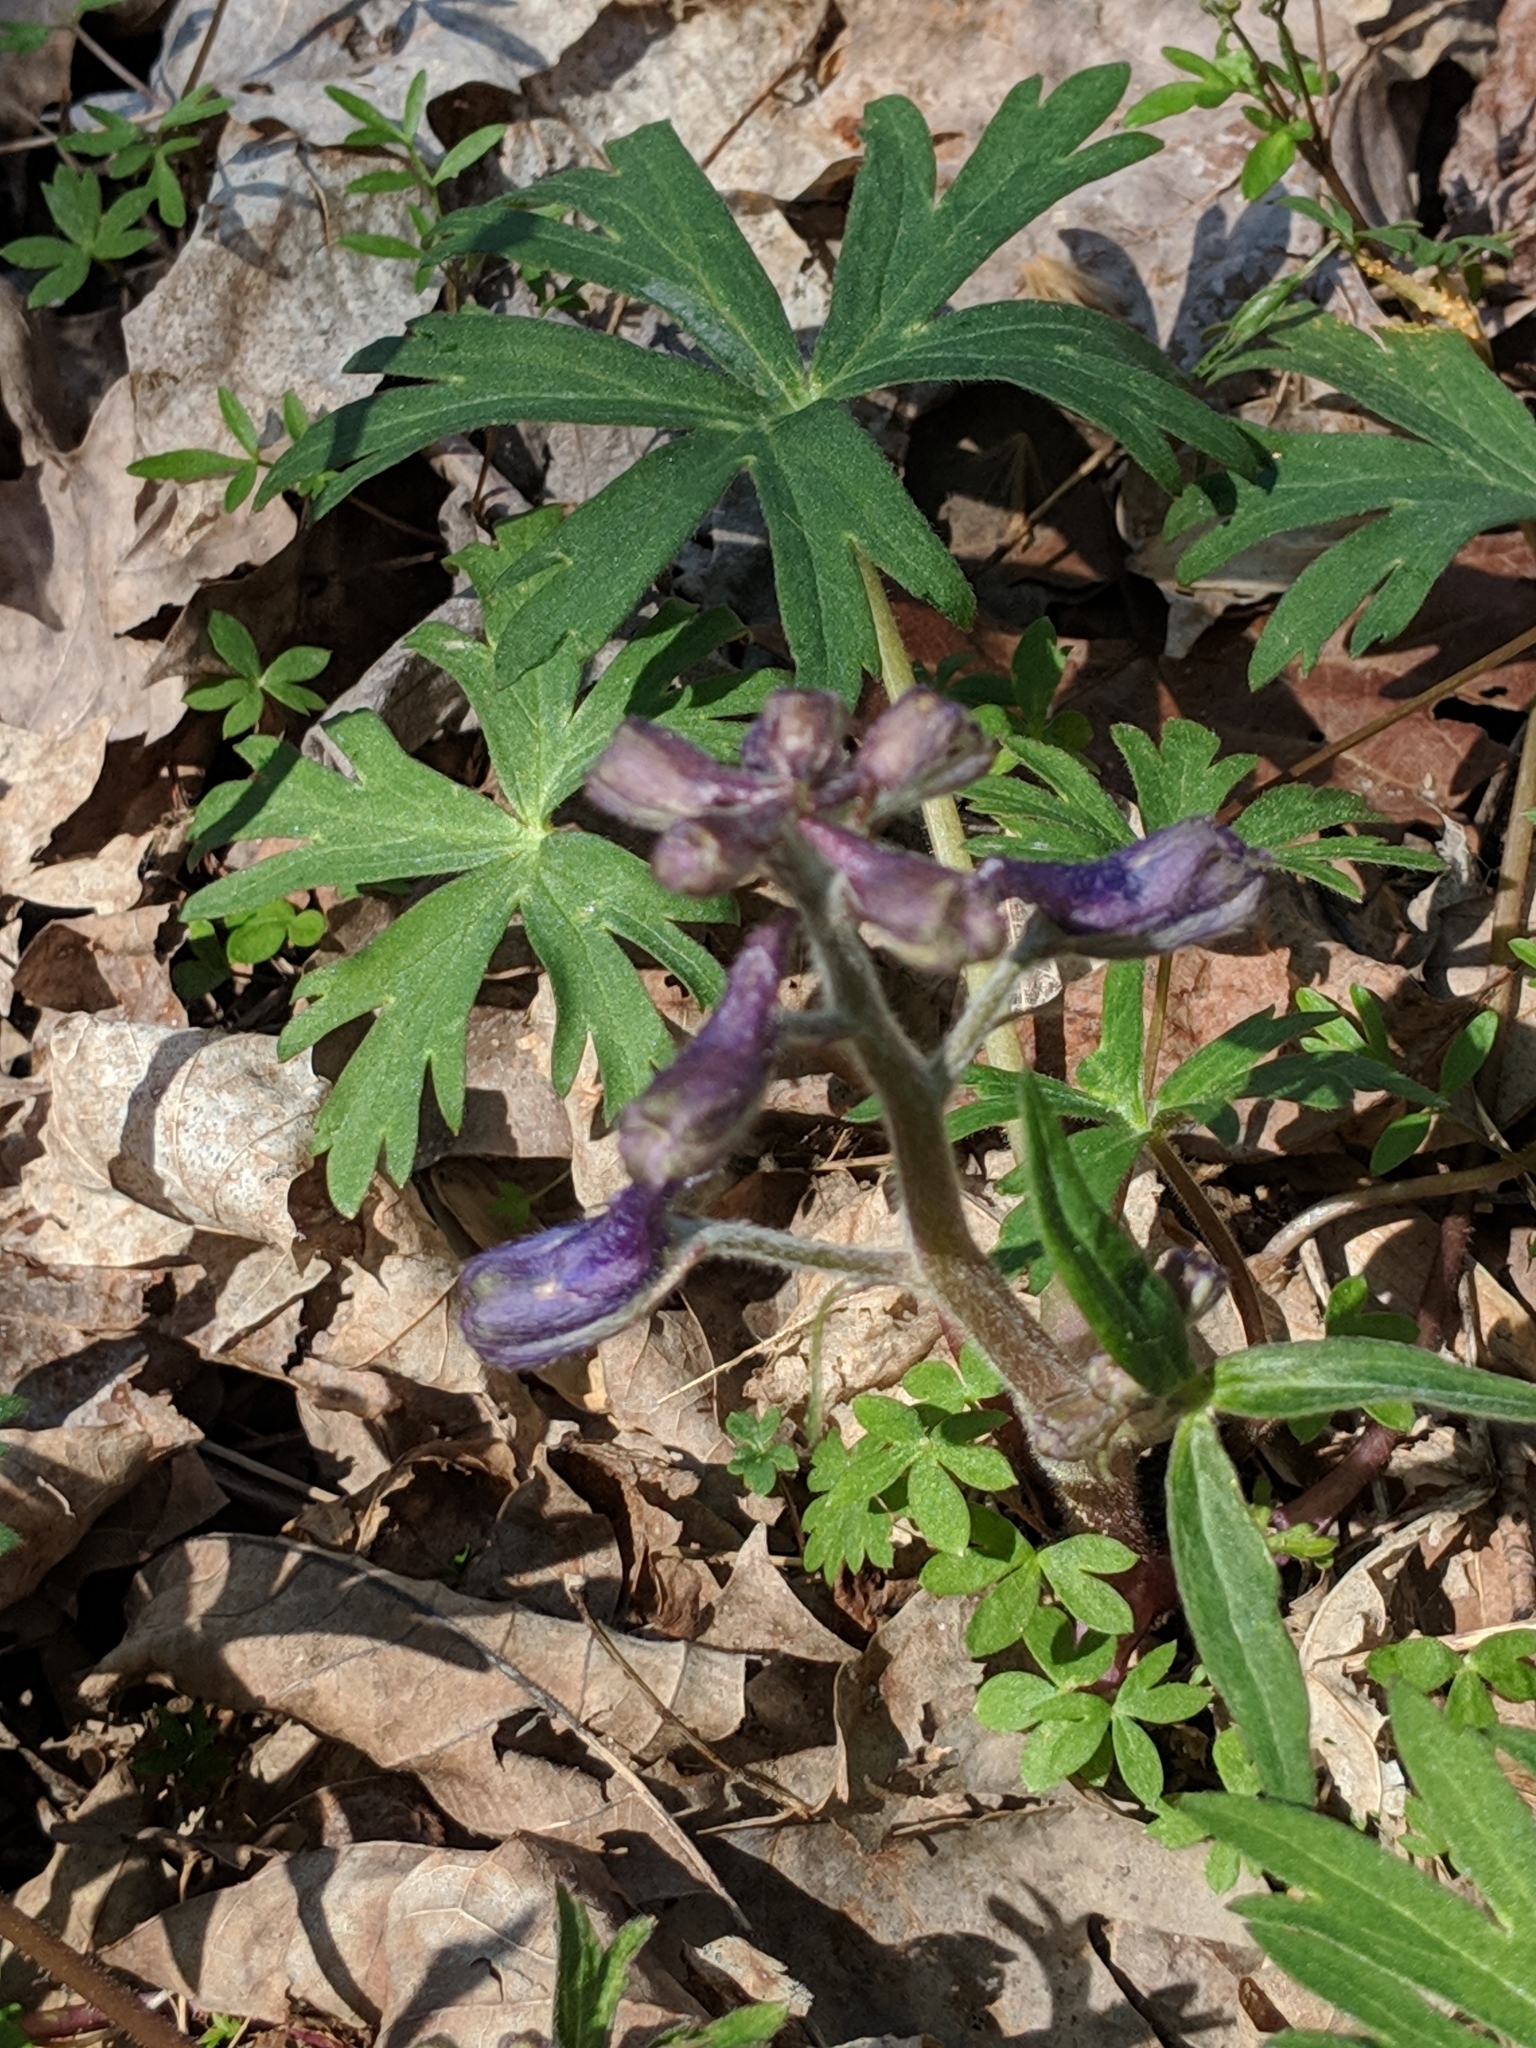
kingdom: Plantae
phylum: Tracheophyta
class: Magnoliopsida
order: Ranunculales
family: Ranunculaceae
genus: Delphinium
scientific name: Delphinium tricorne
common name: Dwarf larkspur
